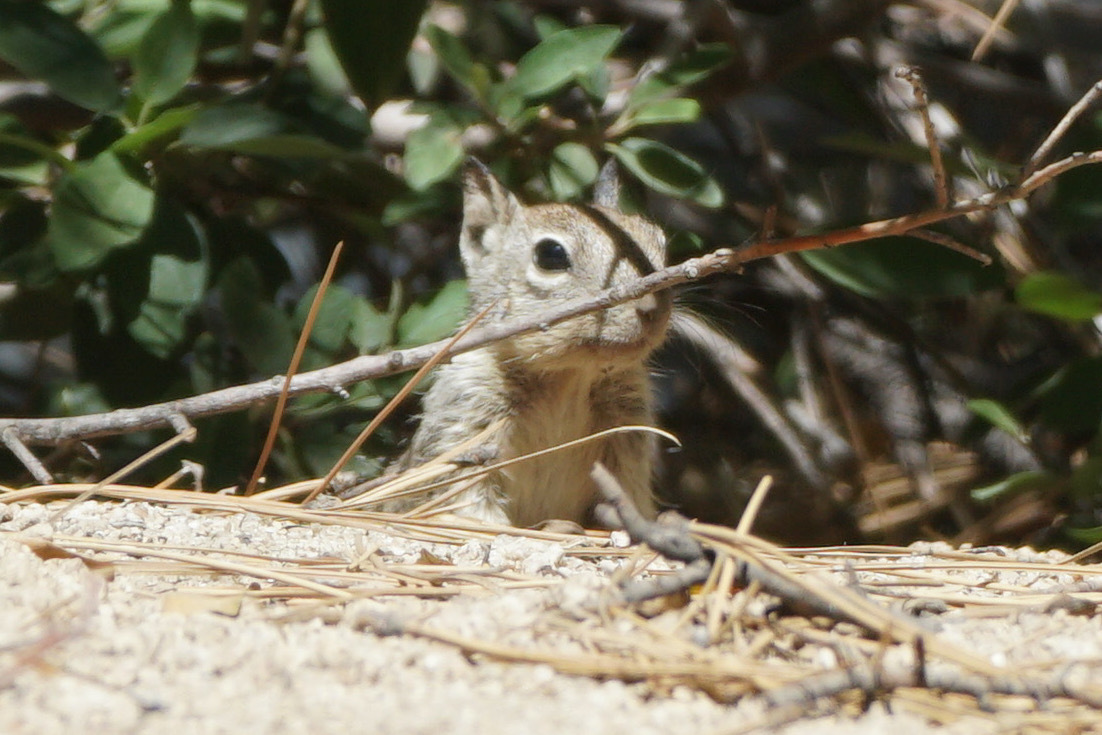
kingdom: Animalia
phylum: Chordata
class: Mammalia
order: Rodentia
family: Sciuridae
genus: Otospermophilus
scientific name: Otospermophilus beecheyi
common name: California ground squirrel
